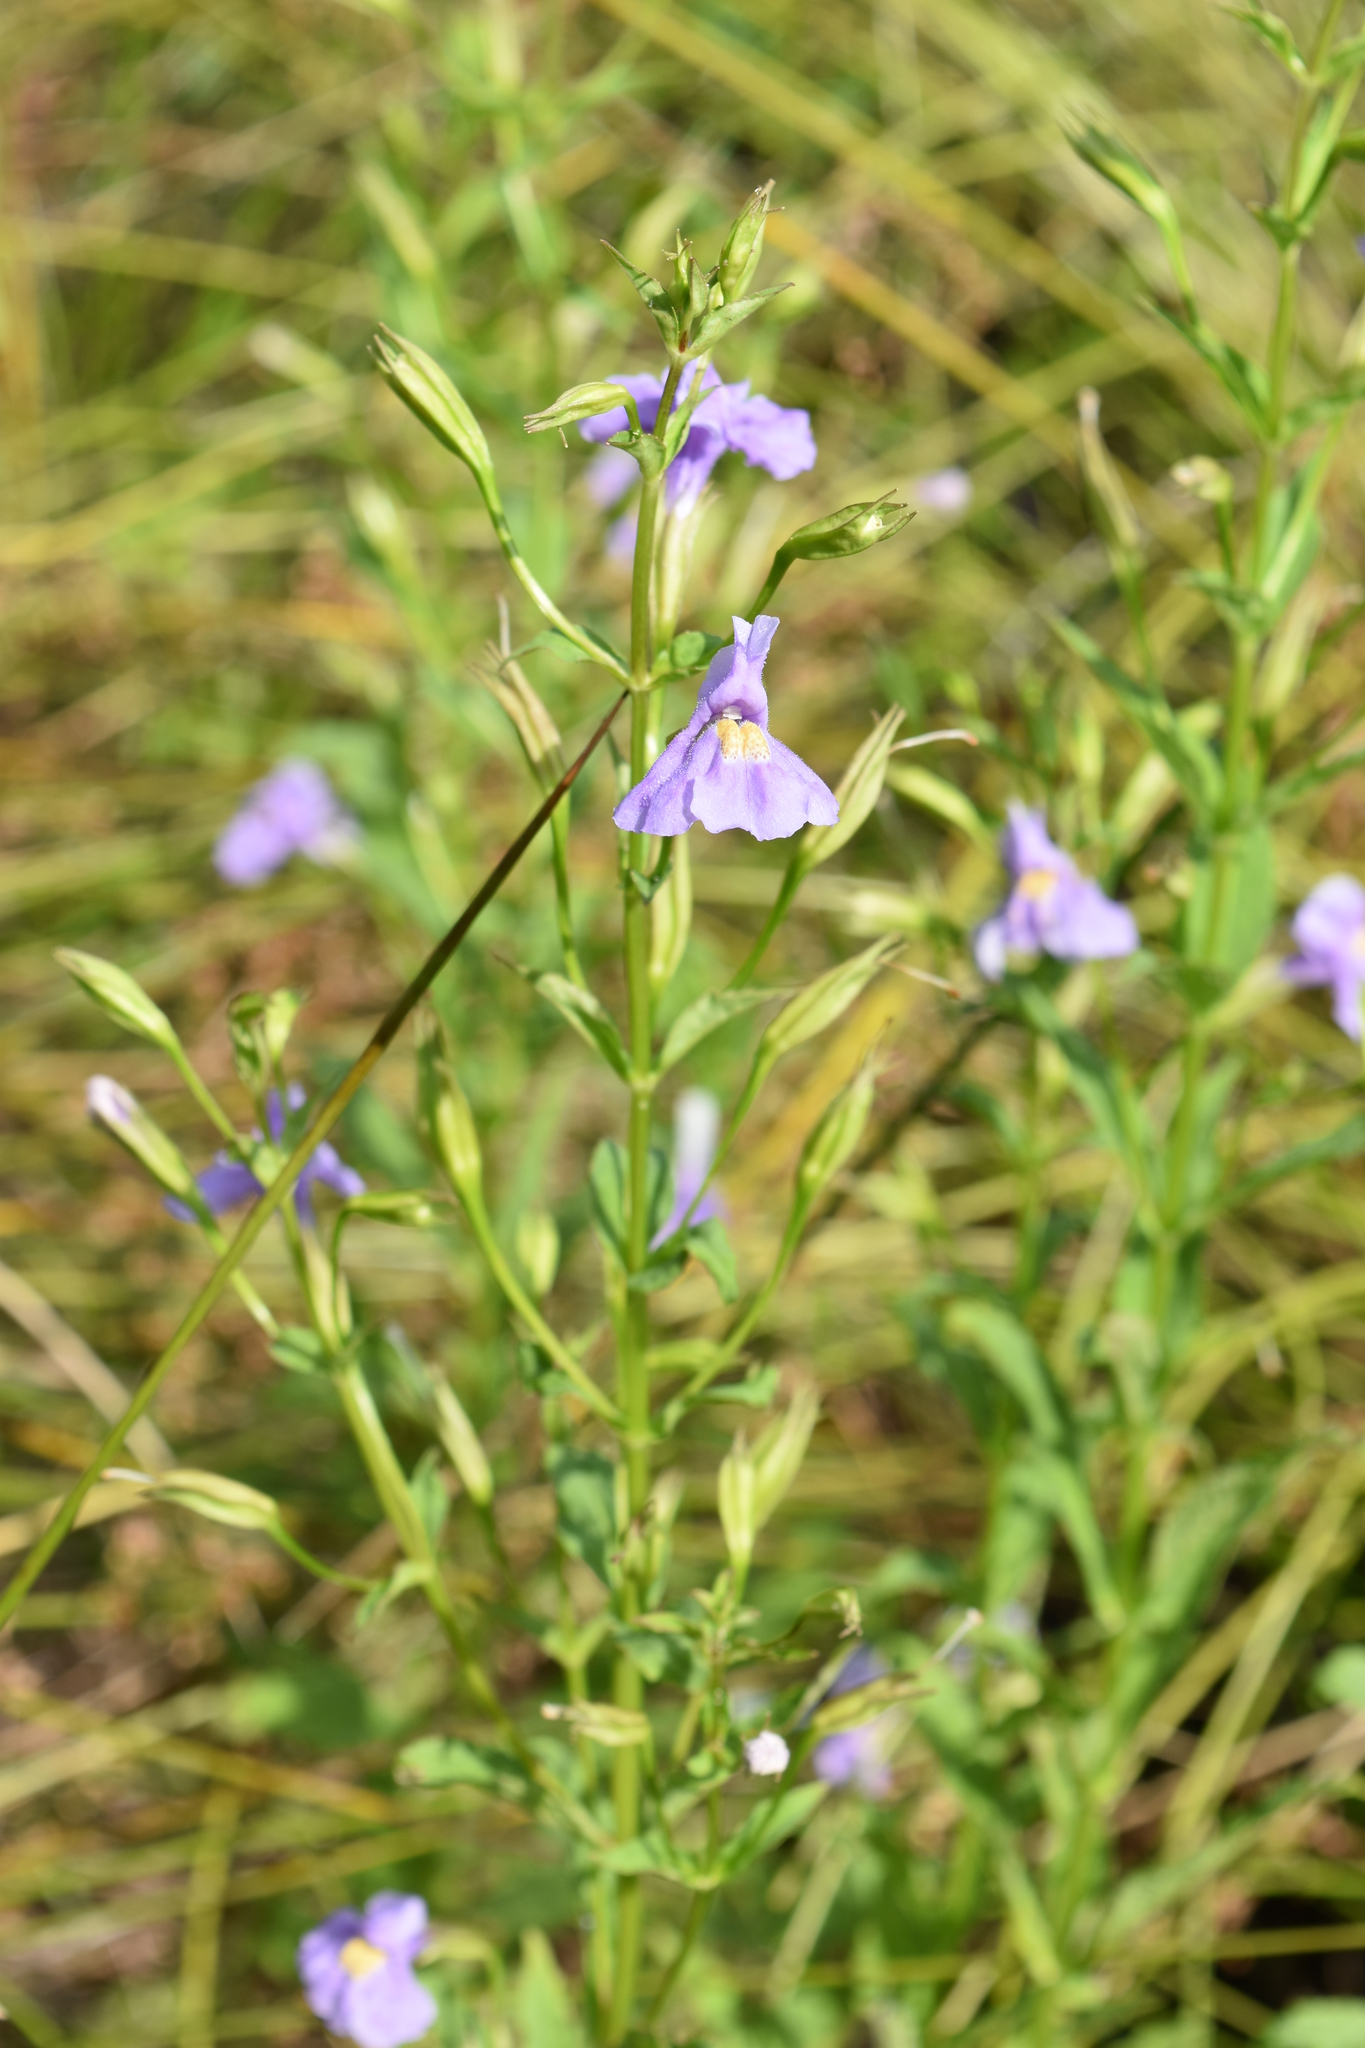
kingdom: Plantae
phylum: Tracheophyta
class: Magnoliopsida
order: Lamiales
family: Phrymaceae
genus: Mimulus
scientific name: Mimulus ringens
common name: Allegheny monkeyflower
